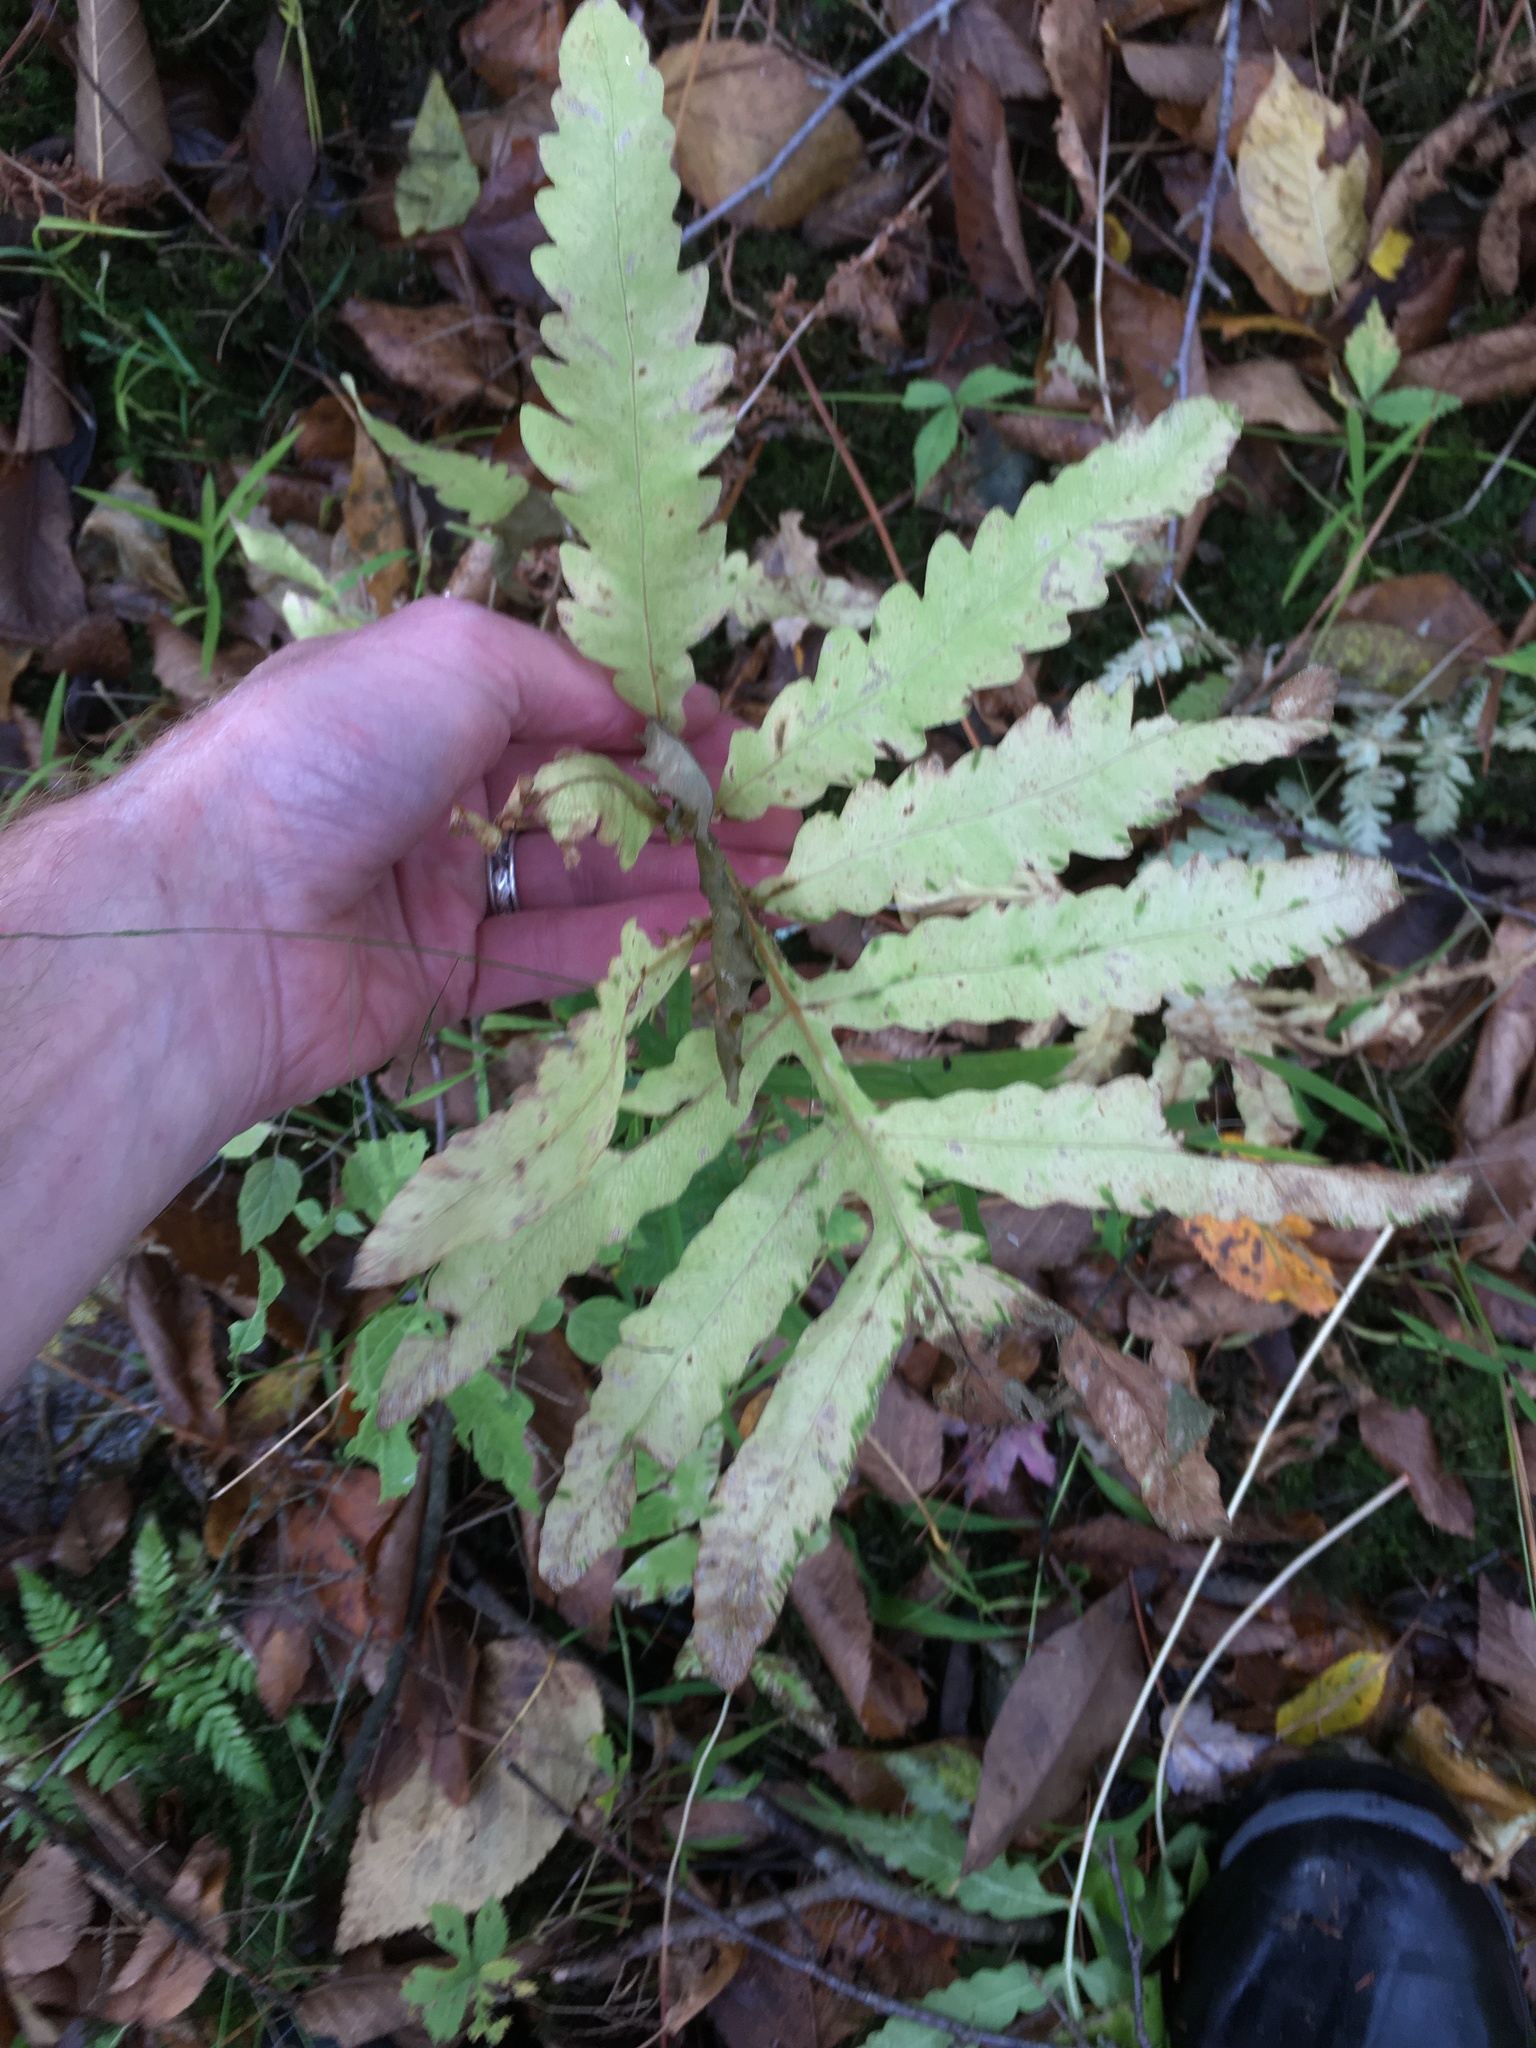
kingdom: Plantae
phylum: Tracheophyta
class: Polypodiopsida
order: Polypodiales
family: Onocleaceae
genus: Onoclea
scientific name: Onoclea sensibilis
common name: Sensitive fern
